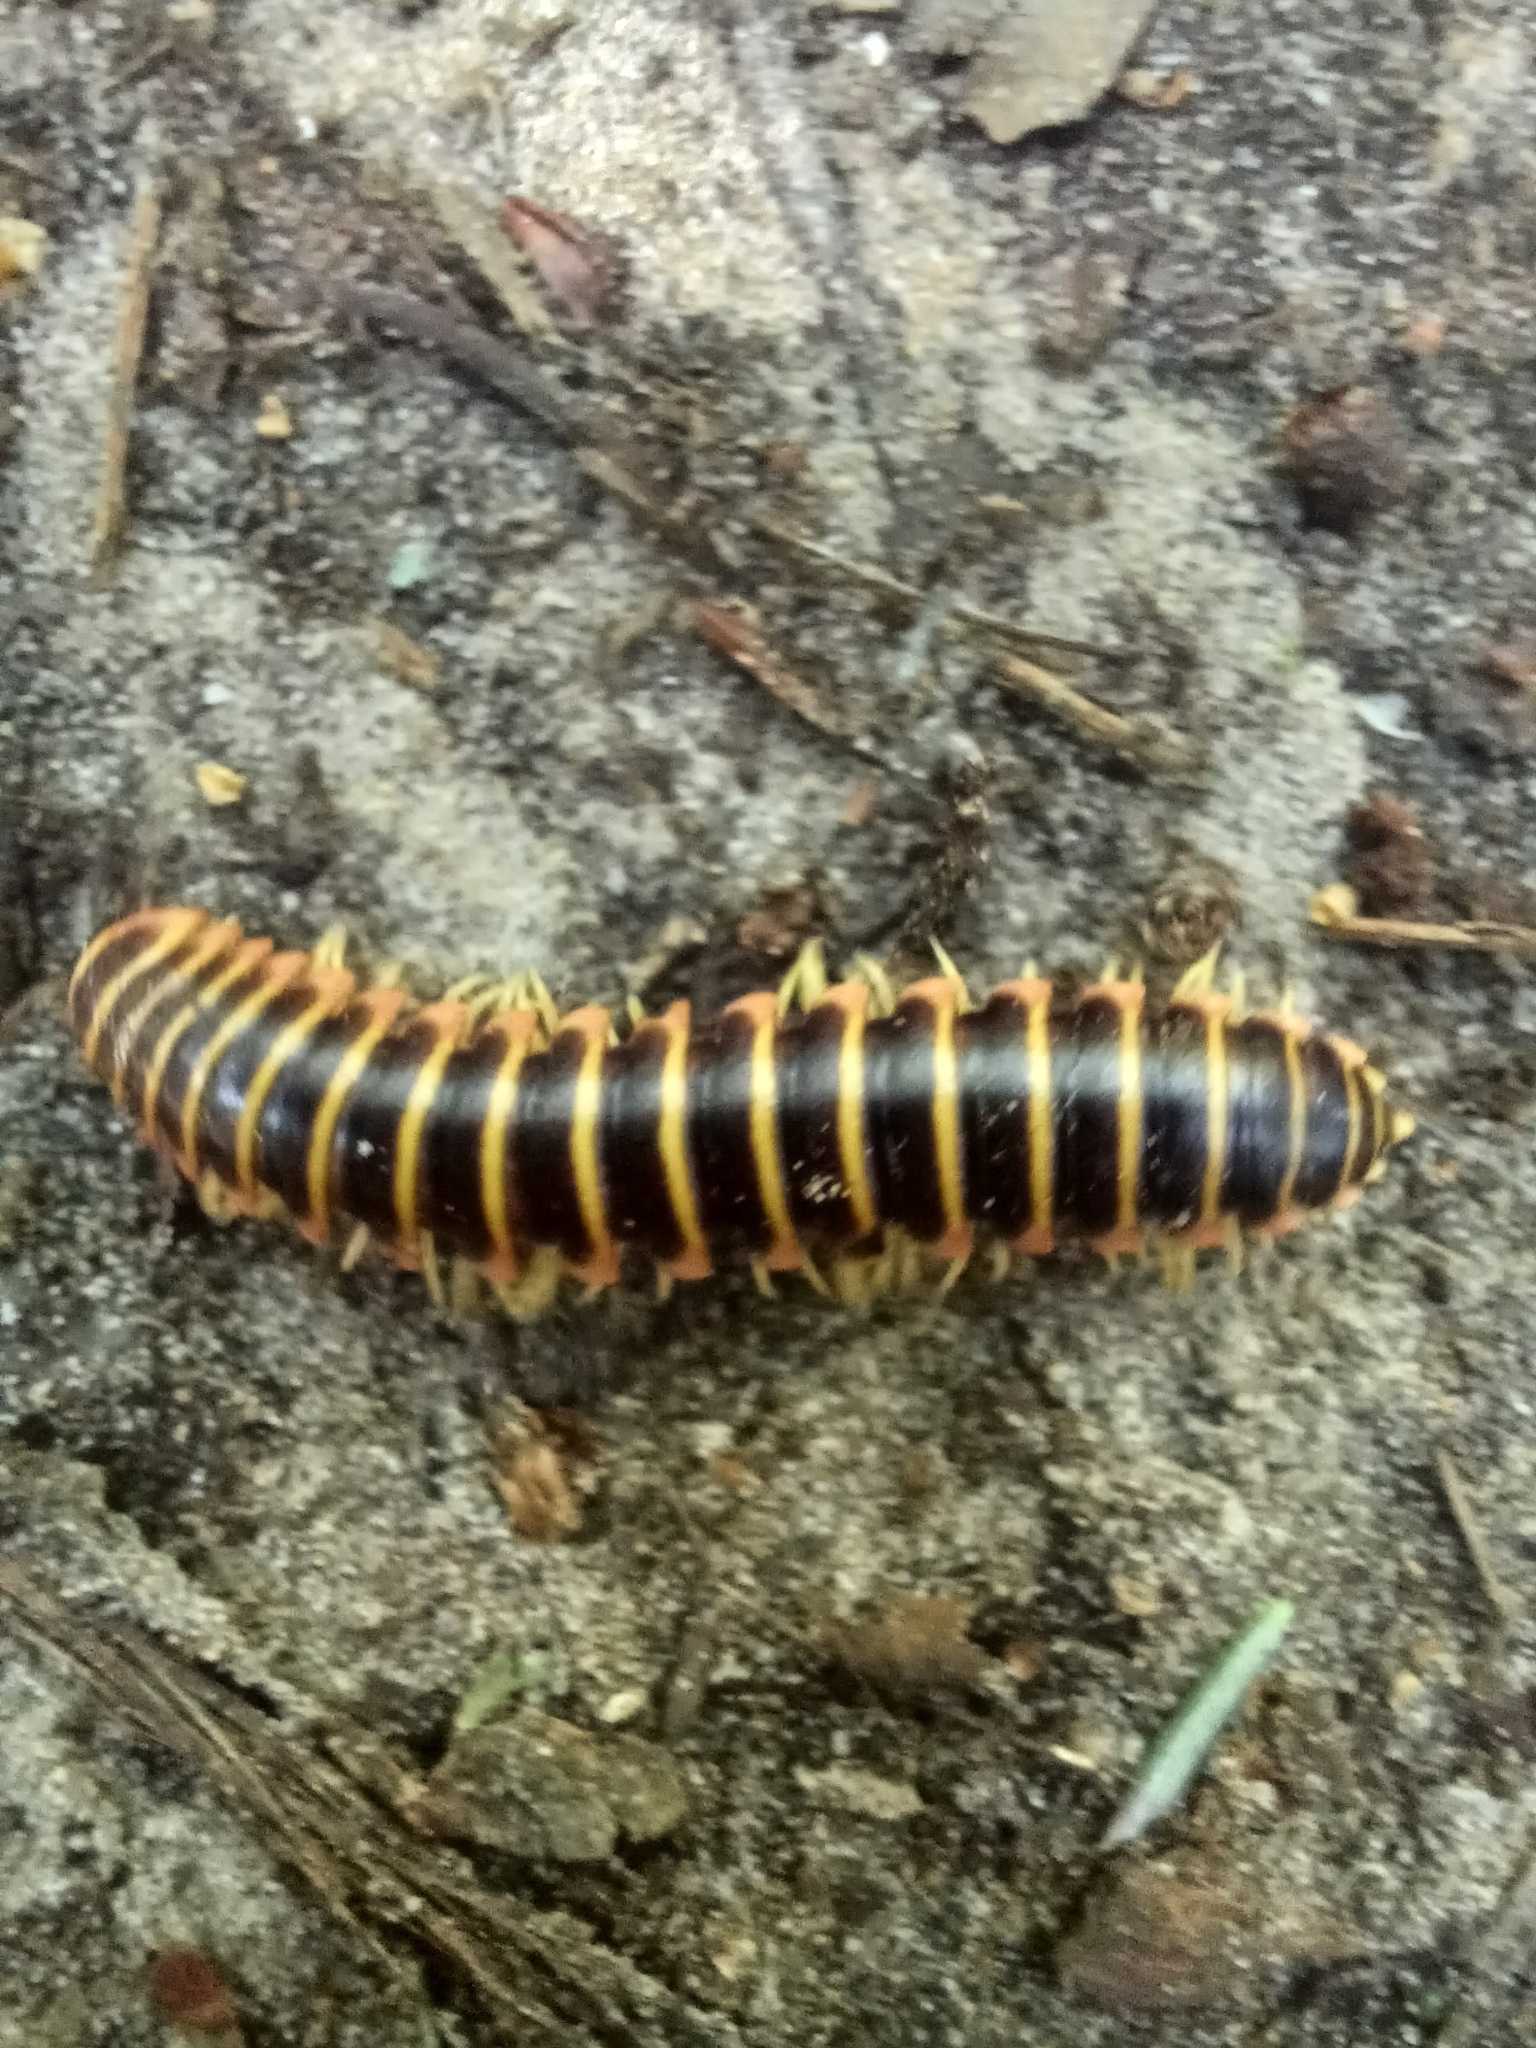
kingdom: Animalia
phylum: Arthropoda
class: Diplopoda
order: Polydesmida
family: Xystodesmidae
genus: Apheloria
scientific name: Apheloria virginiensis
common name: Black-and-gold flat millipede
